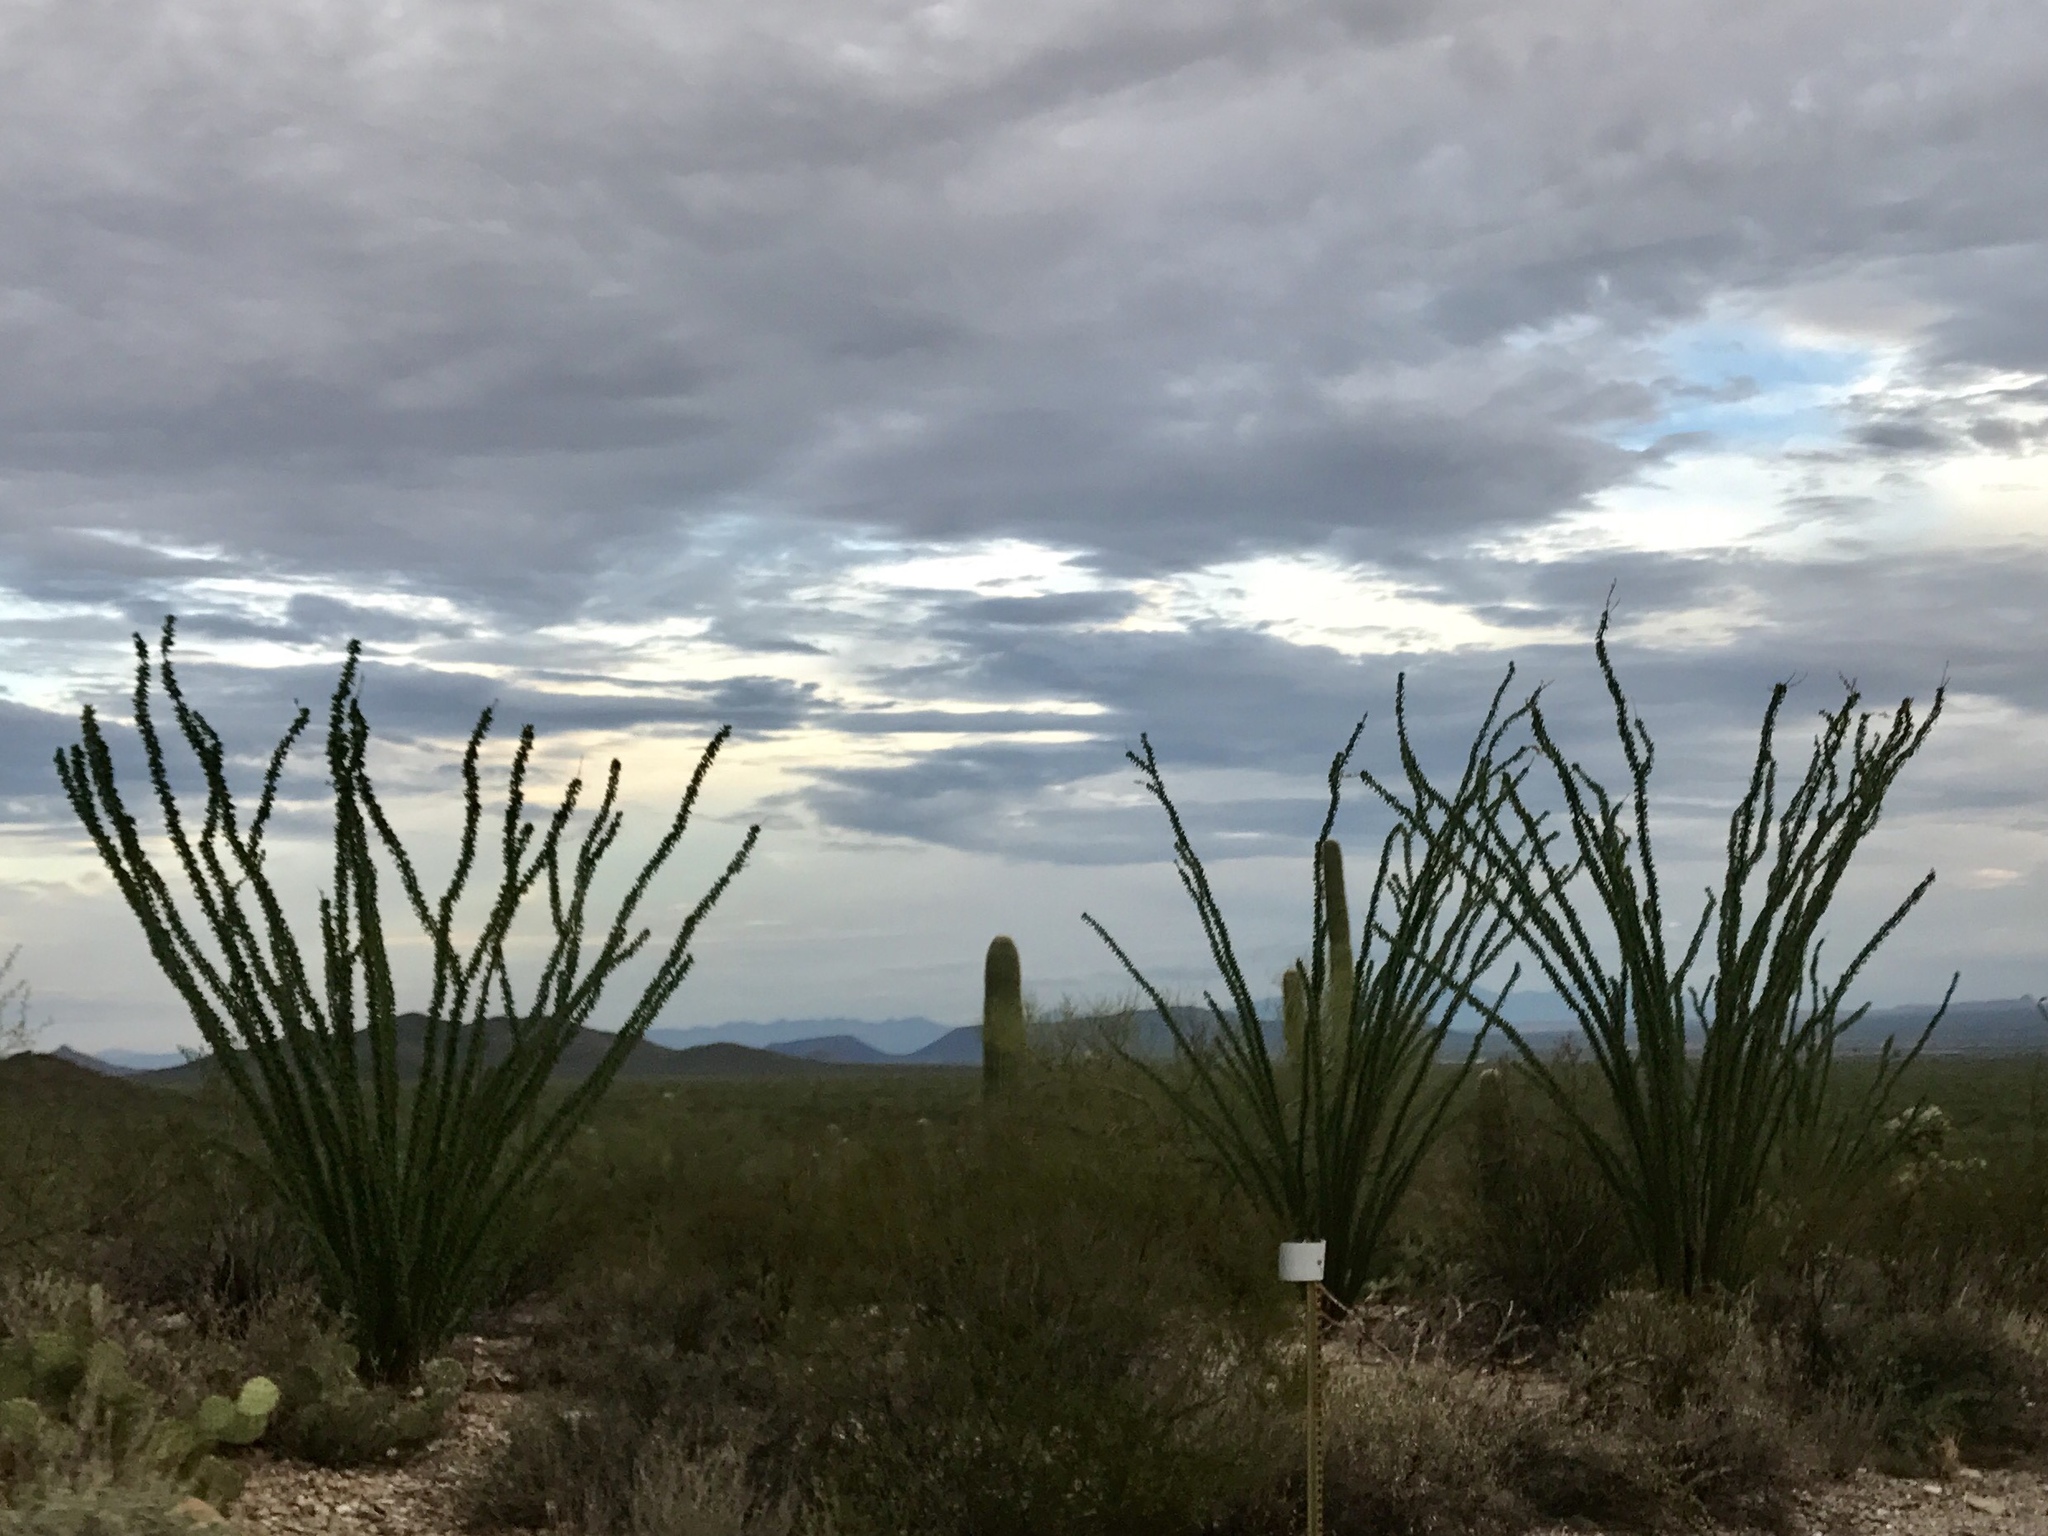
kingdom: Plantae
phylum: Tracheophyta
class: Magnoliopsida
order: Ericales
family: Fouquieriaceae
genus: Fouquieria
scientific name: Fouquieria splendens
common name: Vine-cactus
